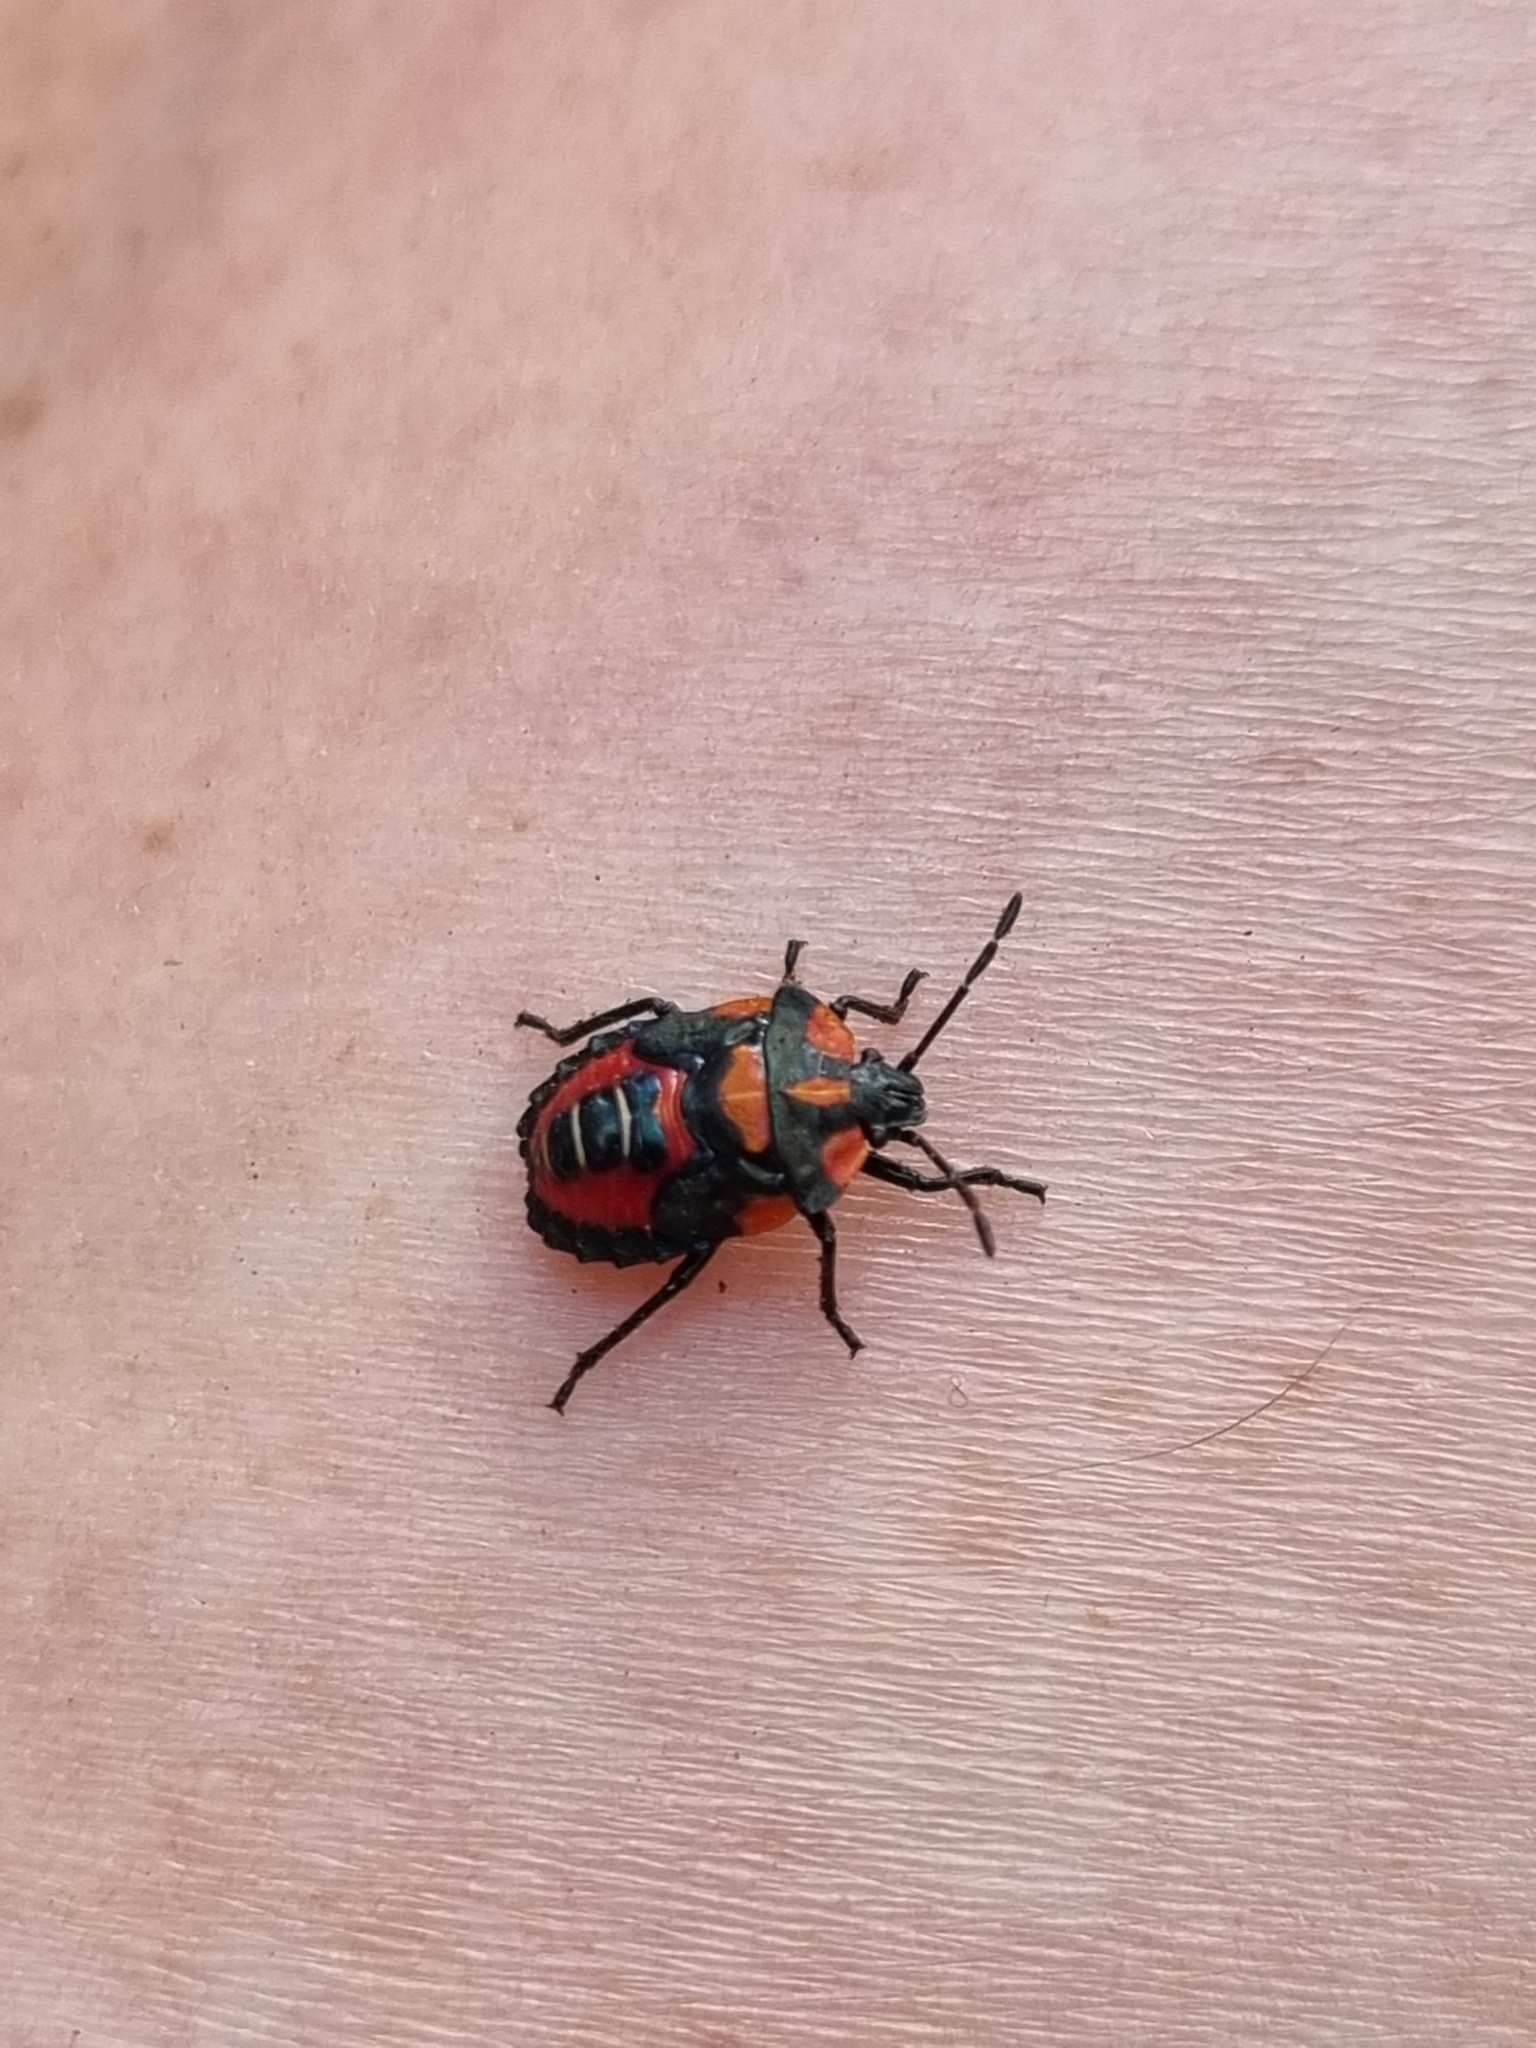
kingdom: Animalia
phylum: Arthropoda
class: Insecta
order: Hemiptera
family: Pentatomidae
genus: Tylospilus
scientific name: Tylospilus
